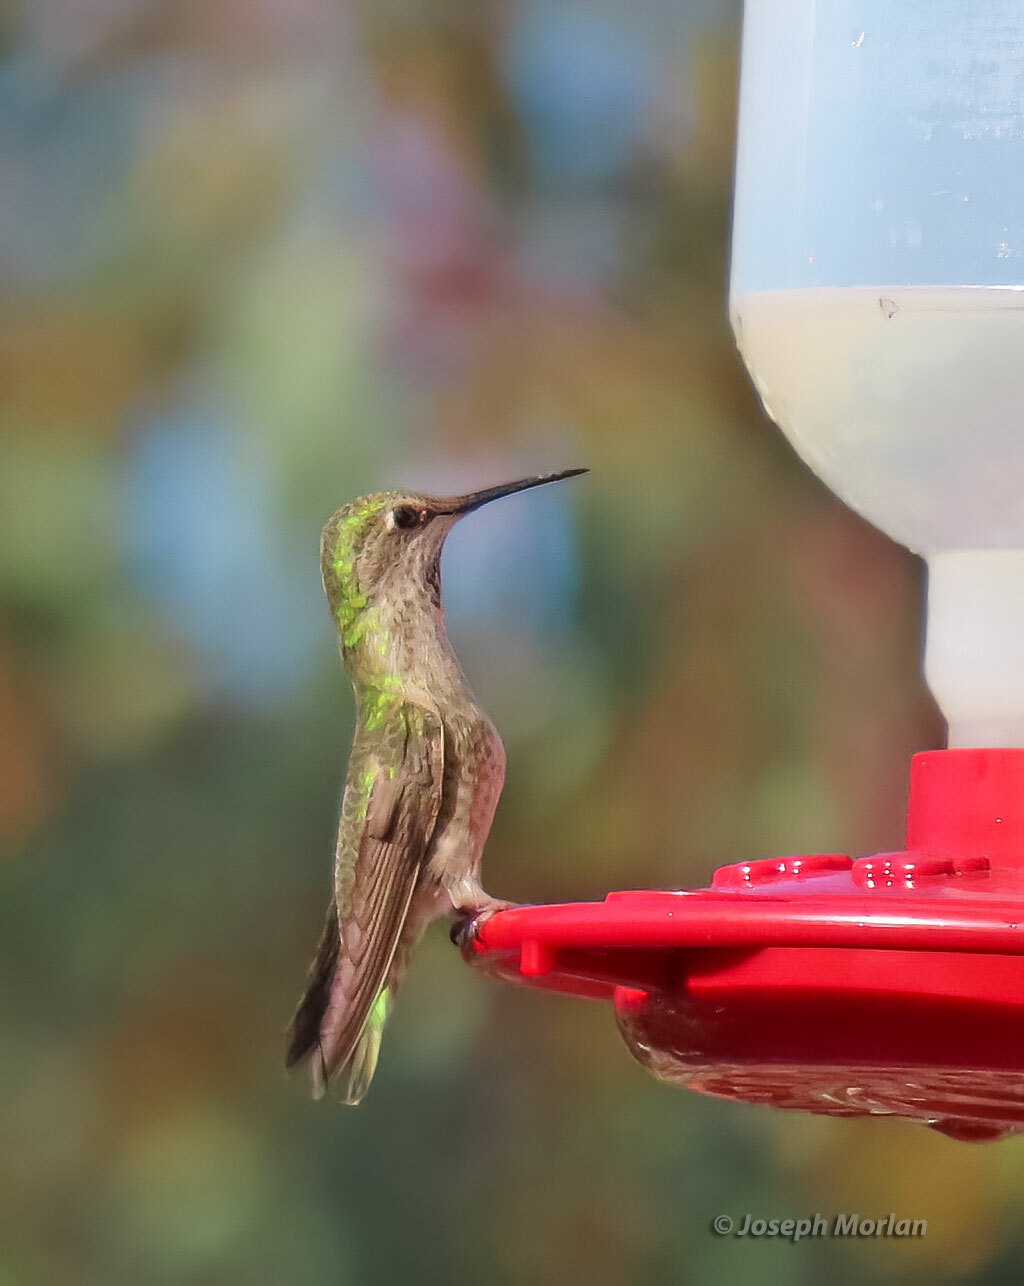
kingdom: Animalia
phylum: Chordata
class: Aves
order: Apodiformes
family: Trochilidae
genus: Calypte
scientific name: Calypte anna
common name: Anna's hummingbird
